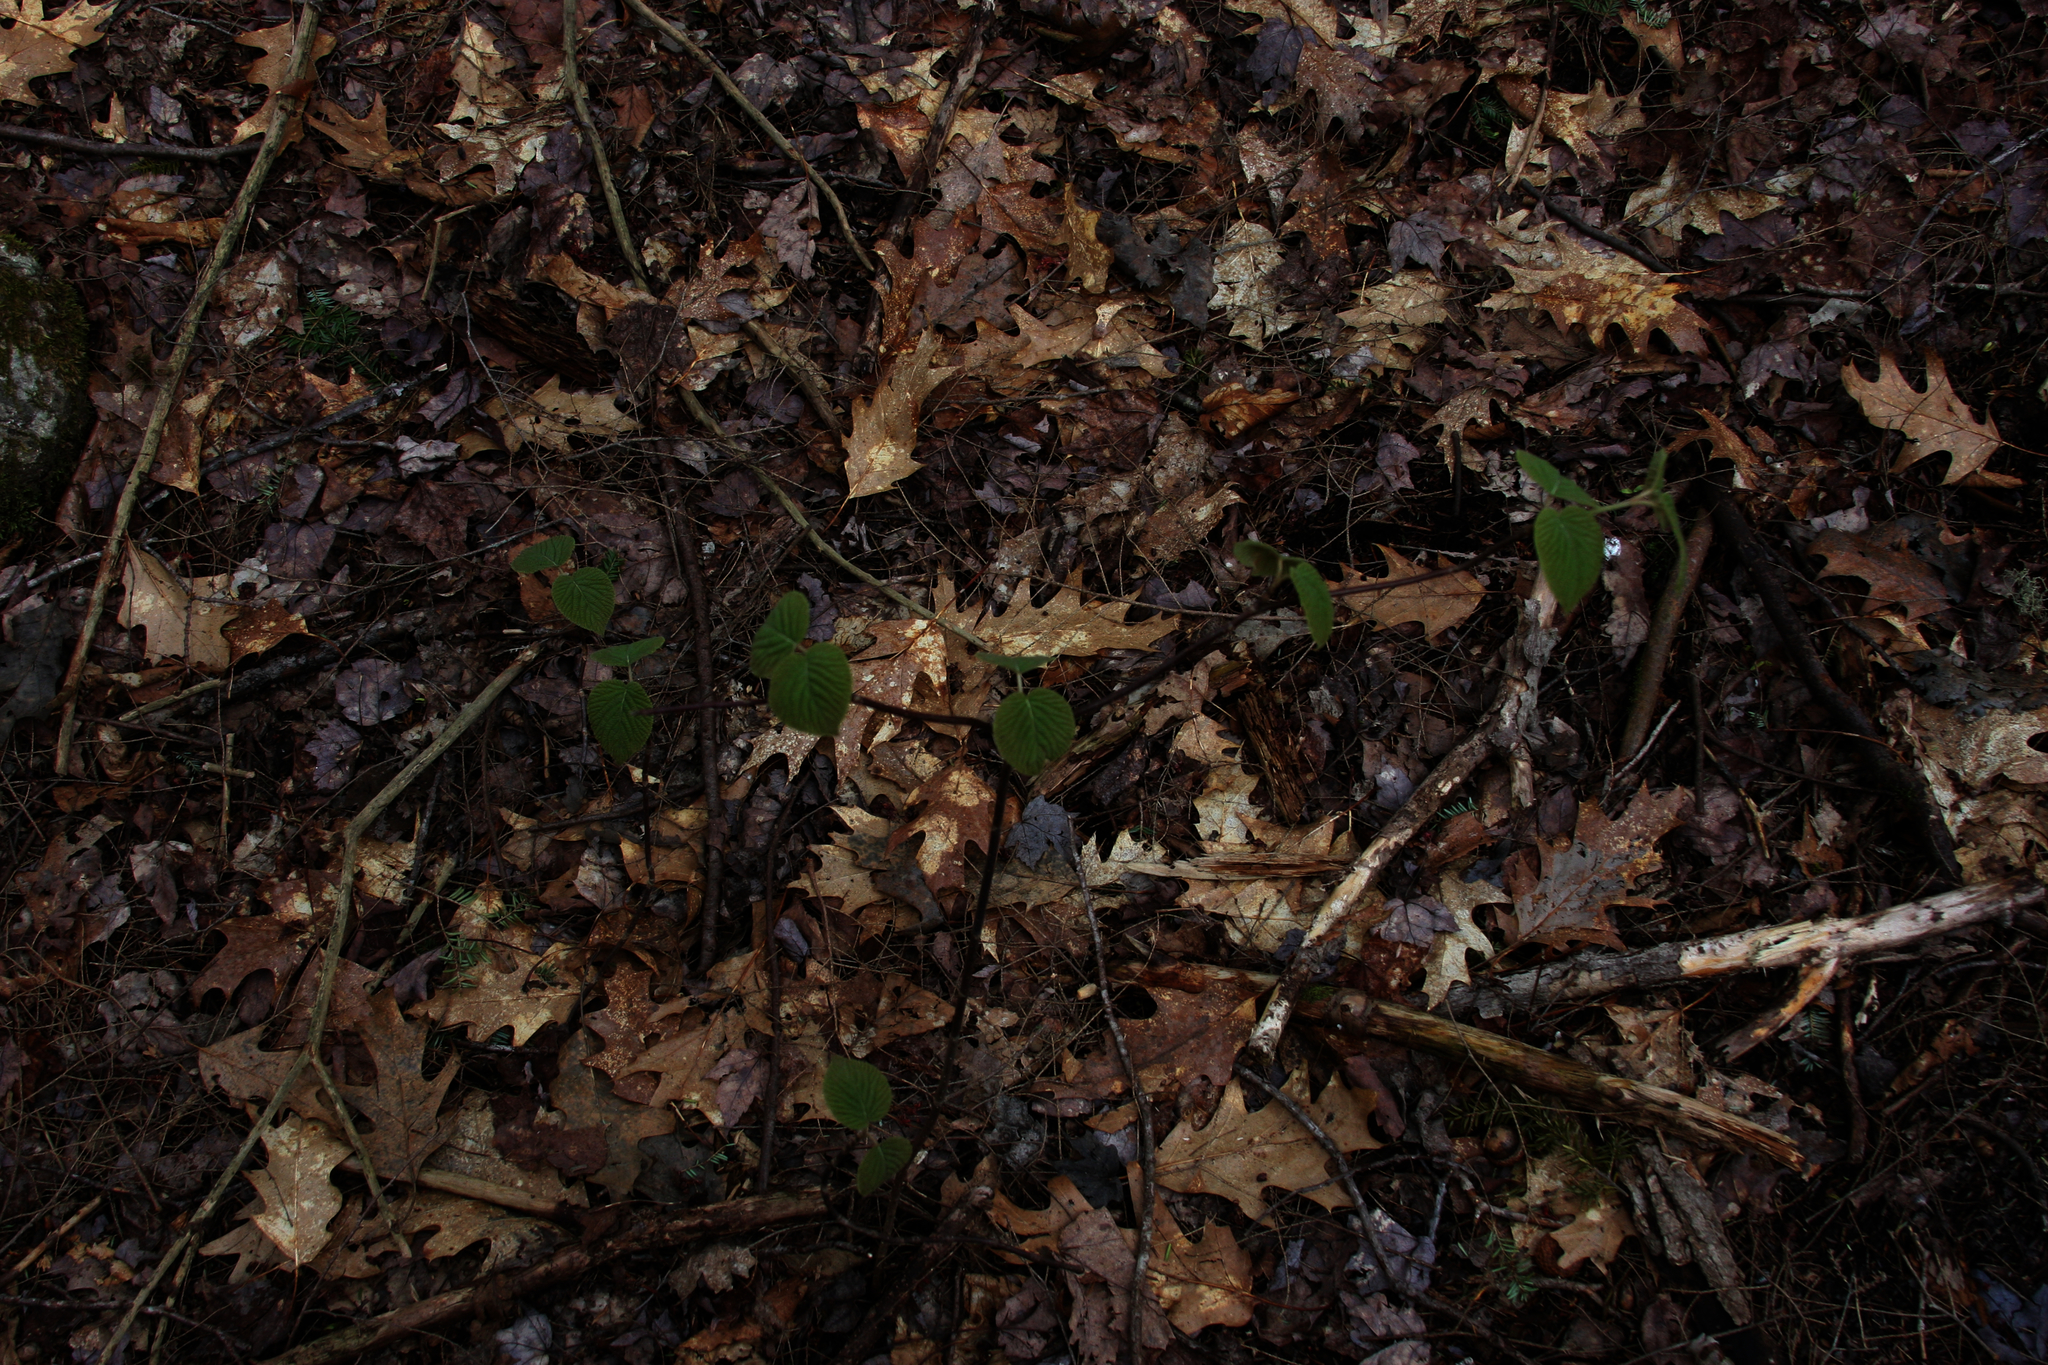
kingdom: Plantae
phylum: Tracheophyta
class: Magnoliopsida
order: Dipsacales
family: Viburnaceae
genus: Viburnum
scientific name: Viburnum lantanoides
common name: Hobblebush
